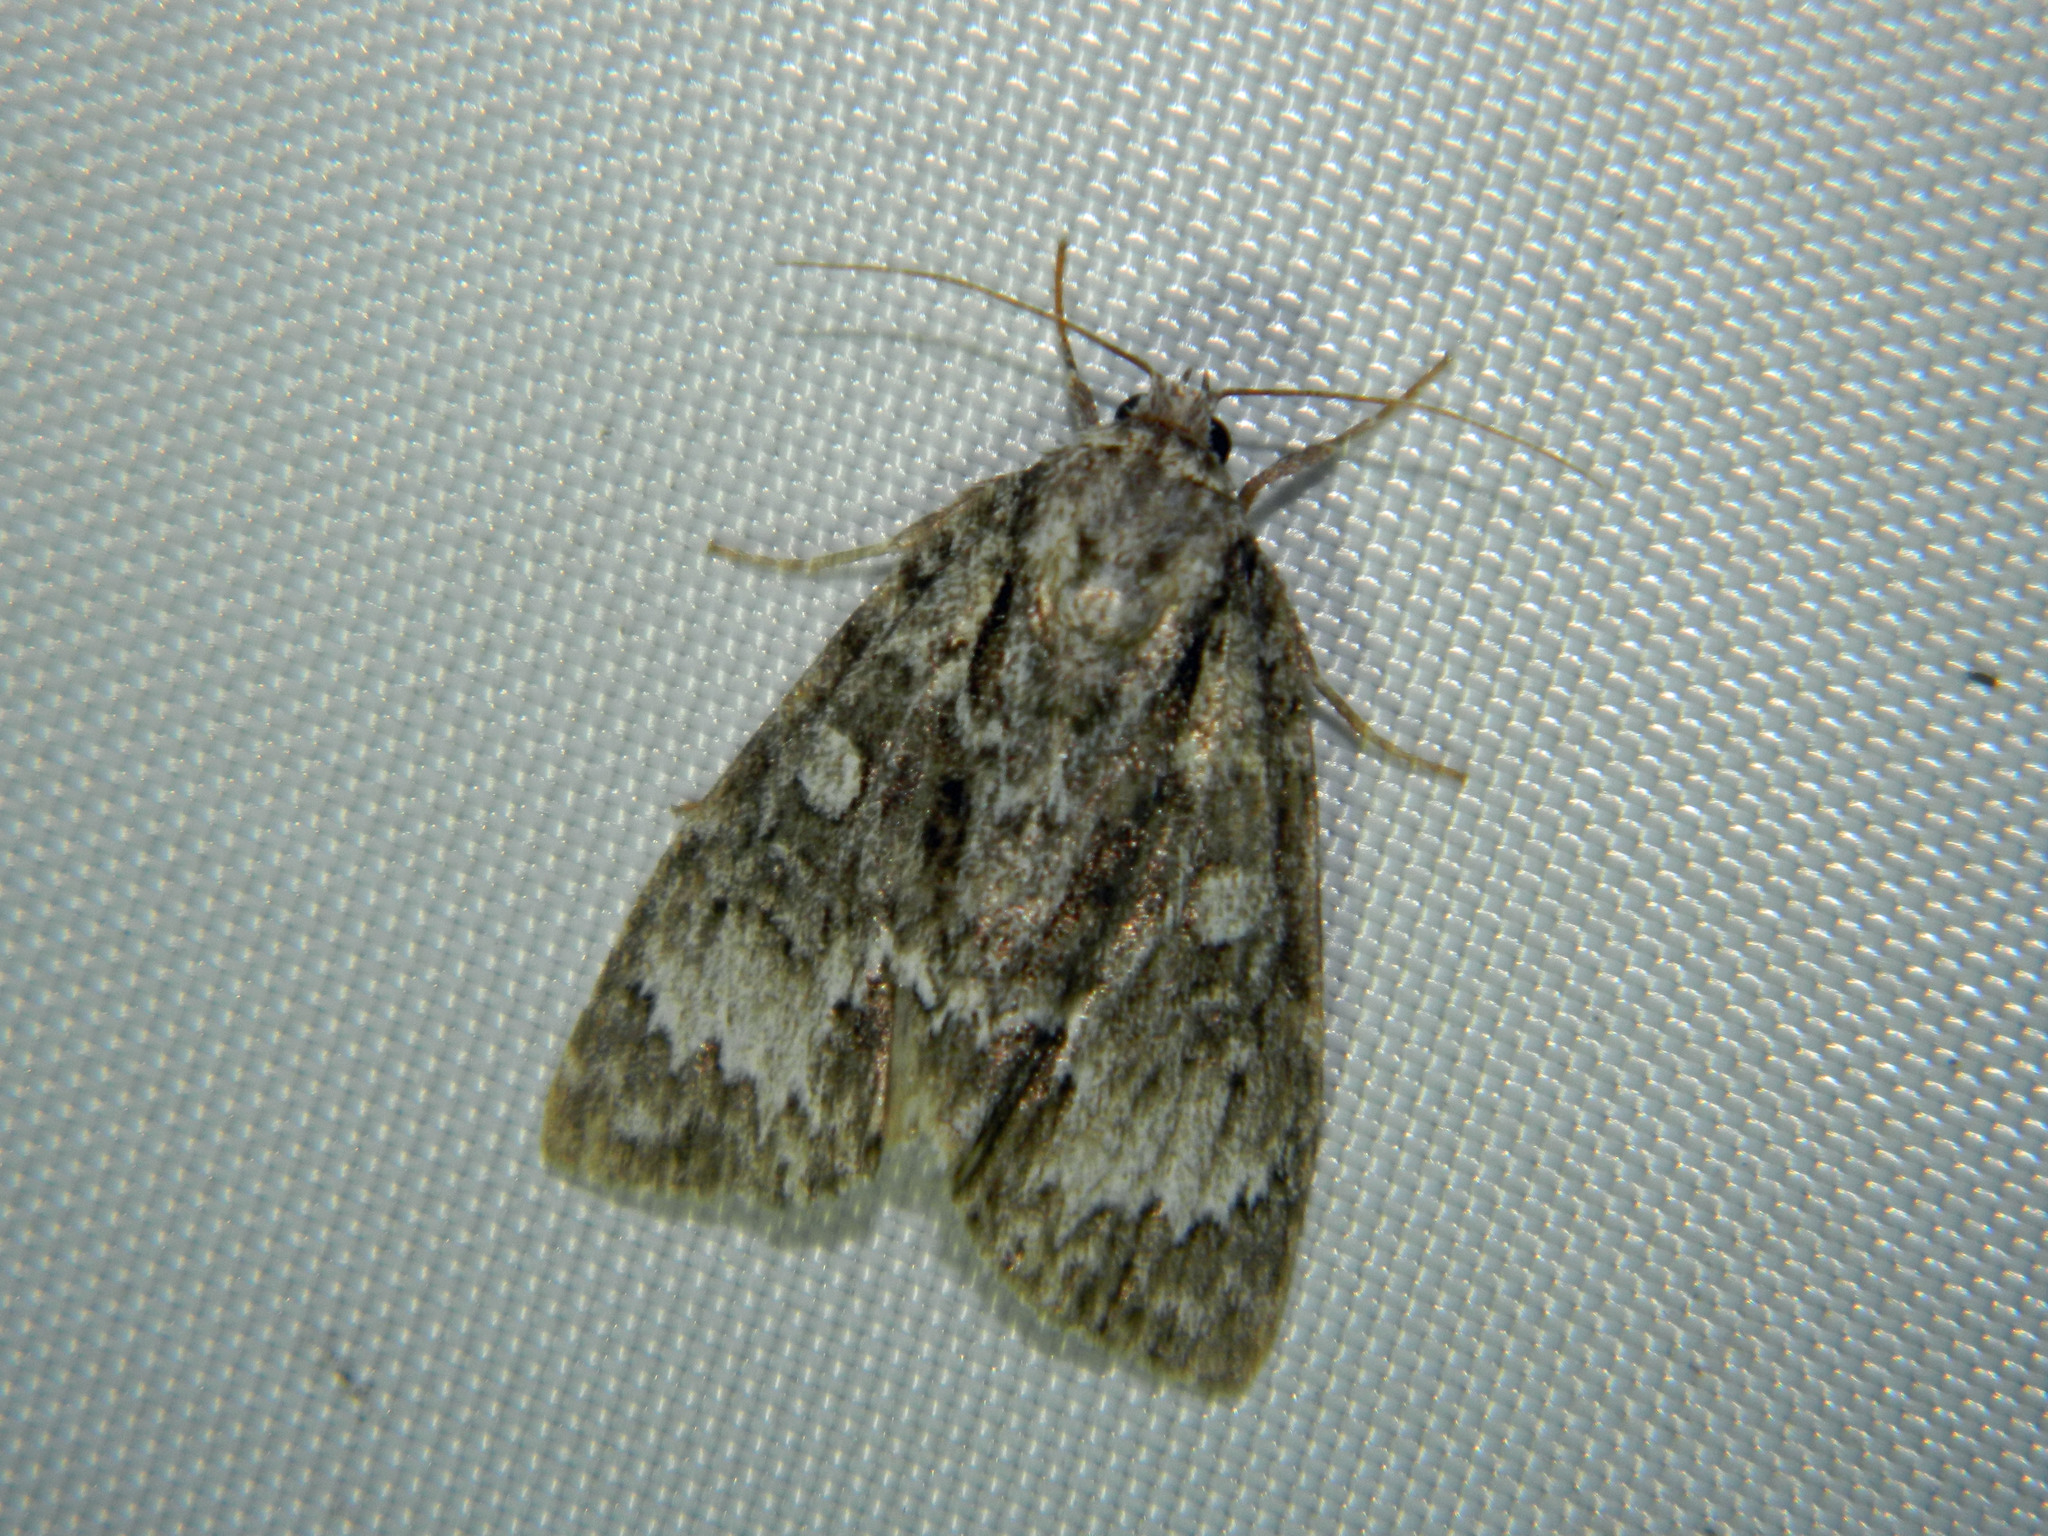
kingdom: Animalia
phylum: Arthropoda
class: Insecta
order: Lepidoptera
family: Noctuidae
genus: Acronicta
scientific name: Acronicta fragilis
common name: Fragile dagger
